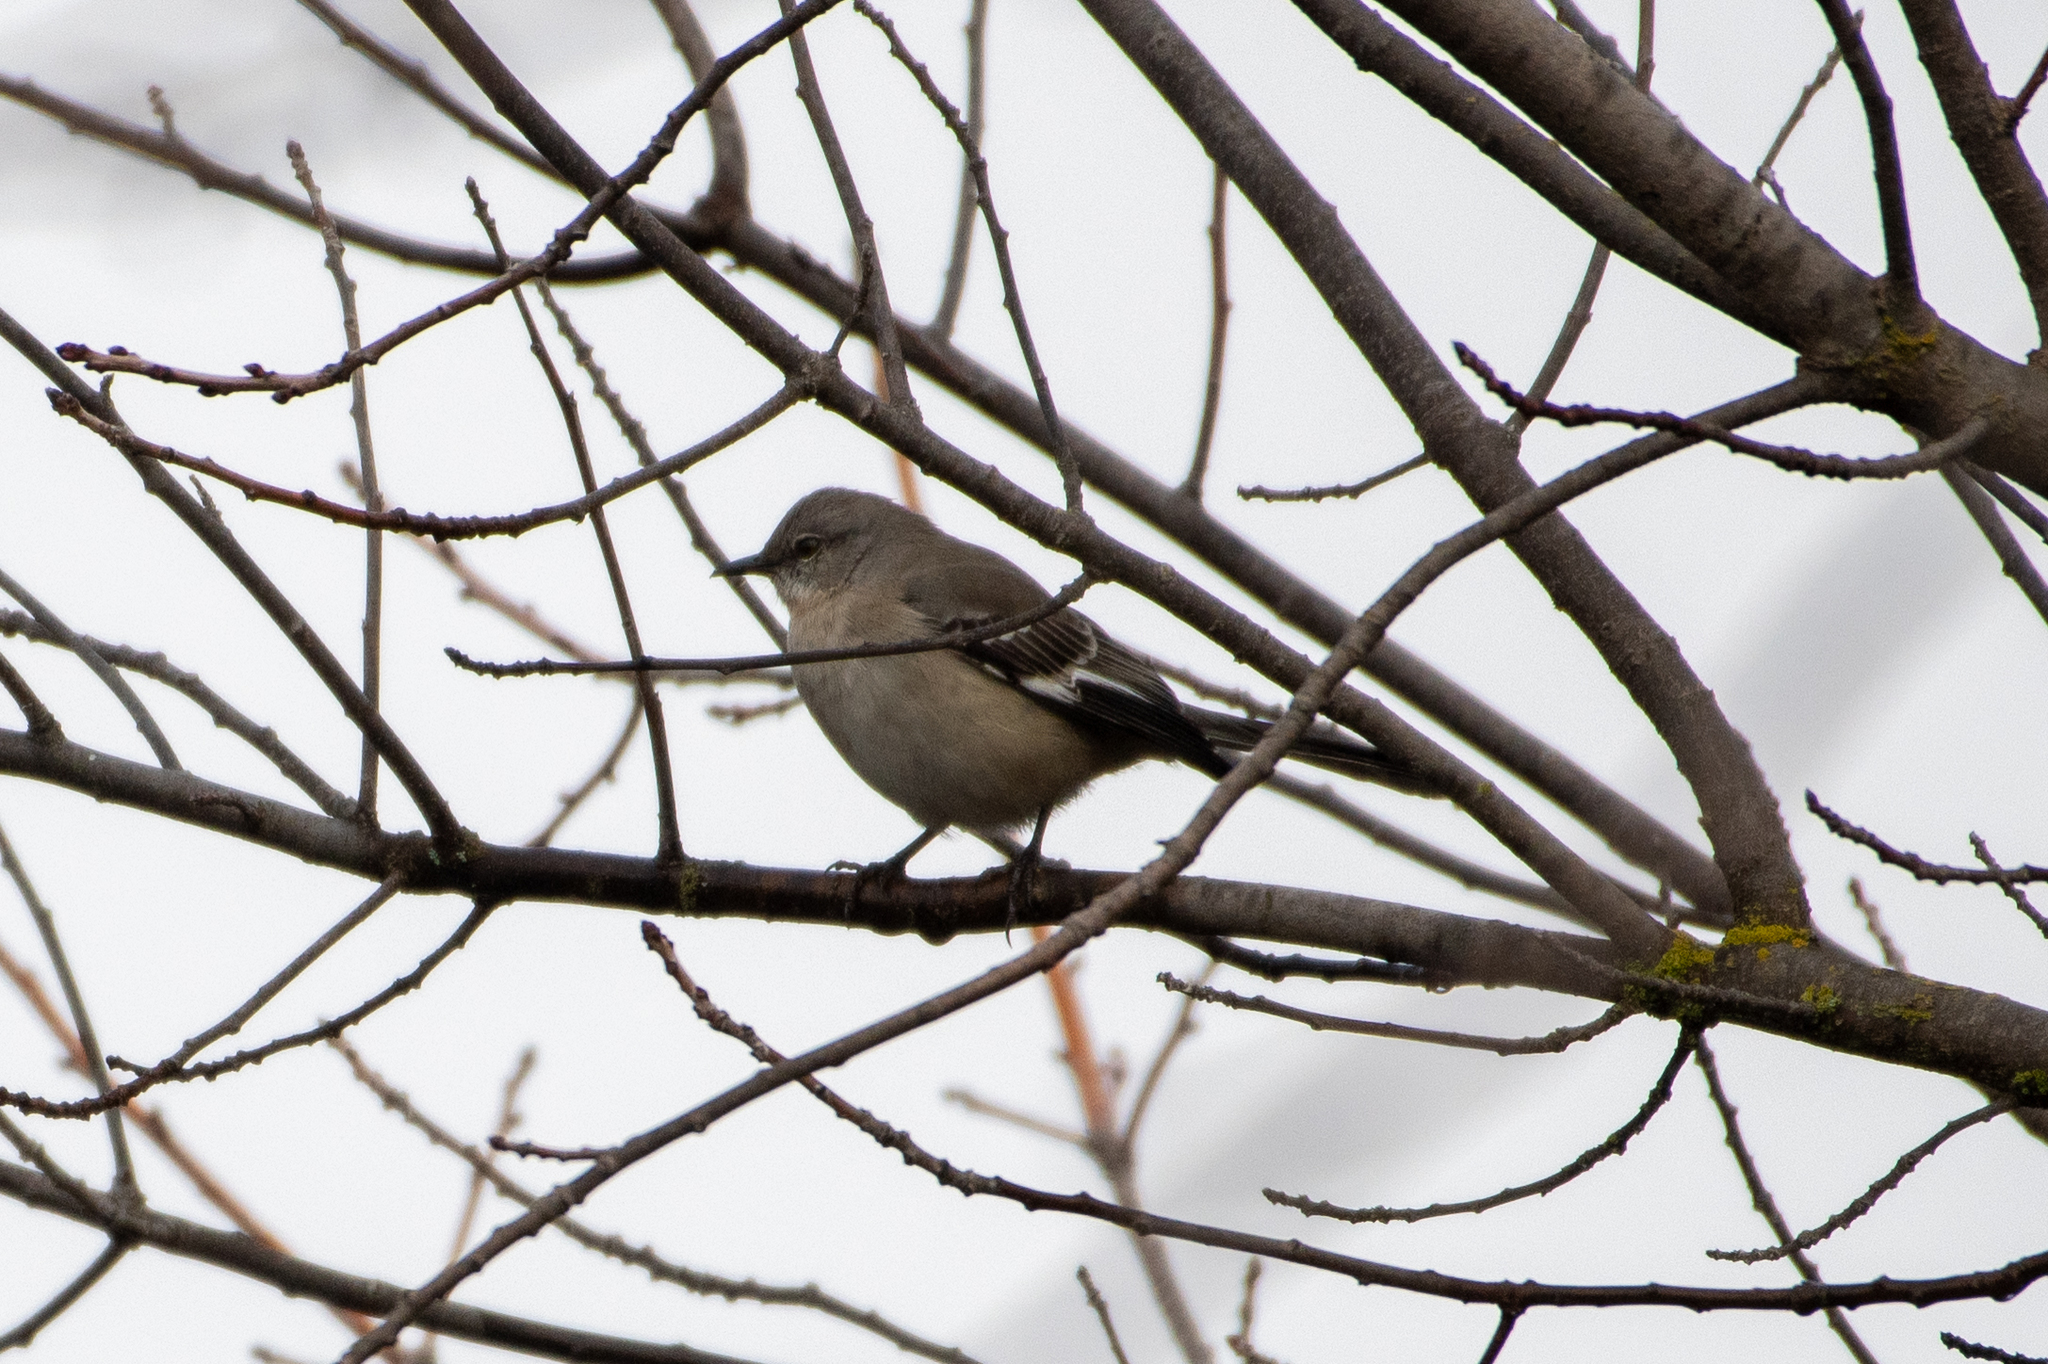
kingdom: Animalia
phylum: Chordata
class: Aves
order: Passeriformes
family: Mimidae
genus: Mimus
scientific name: Mimus polyglottos
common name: Northern mockingbird
